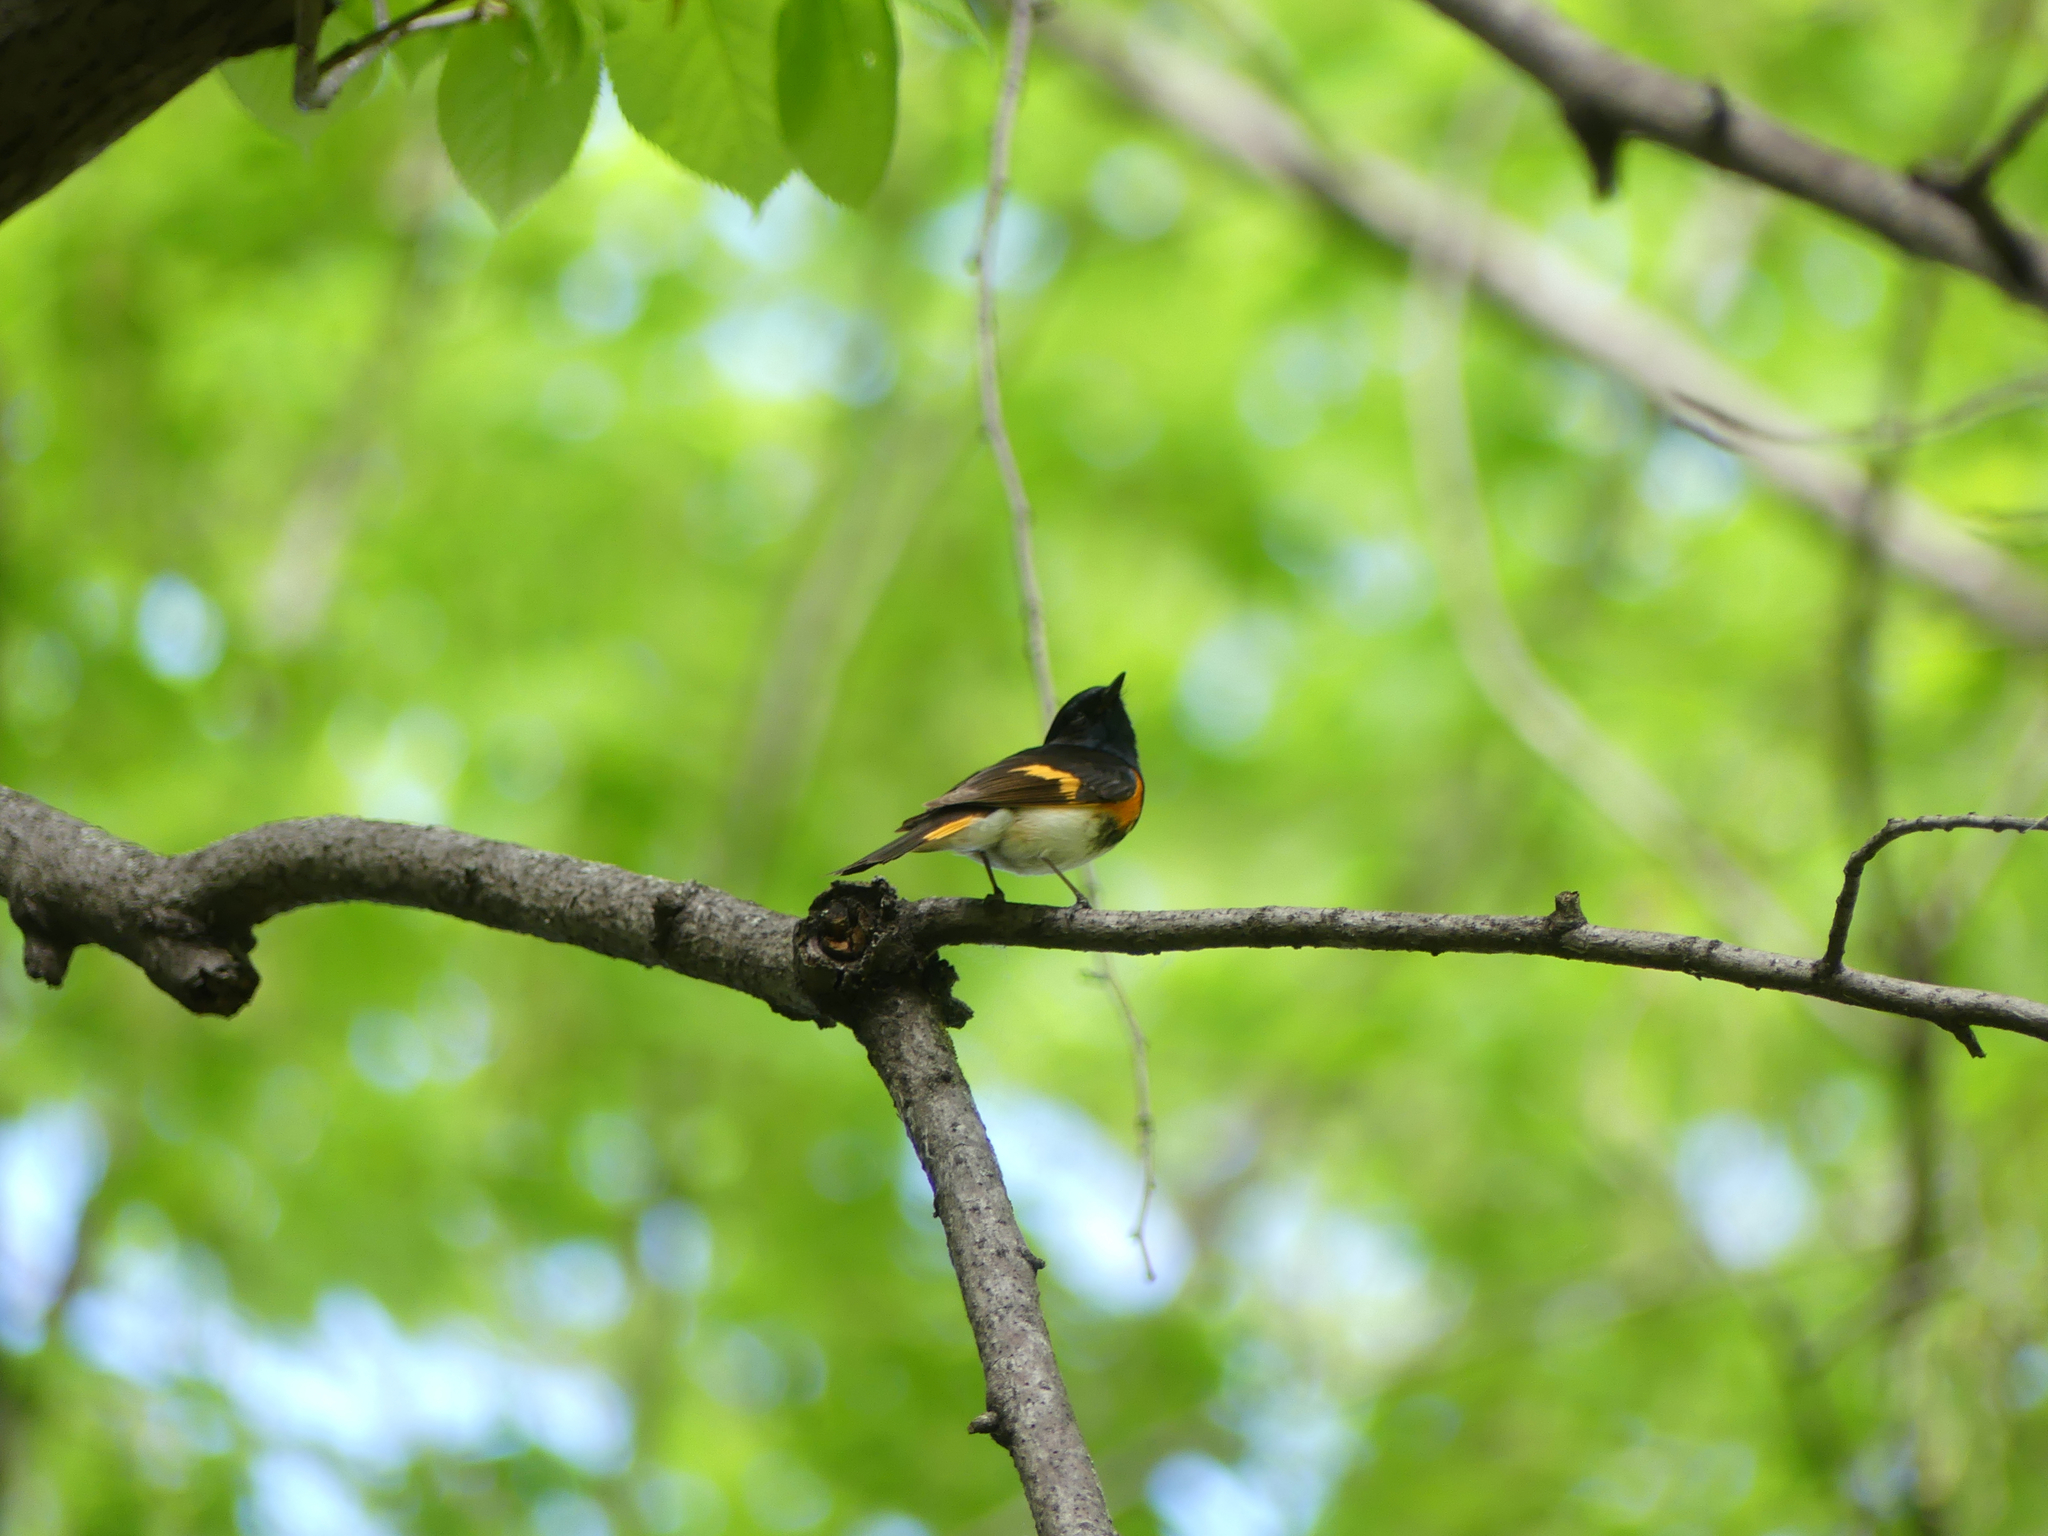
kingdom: Animalia
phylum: Chordata
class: Aves
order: Passeriformes
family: Parulidae
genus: Setophaga
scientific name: Setophaga ruticilla
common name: American redstart
